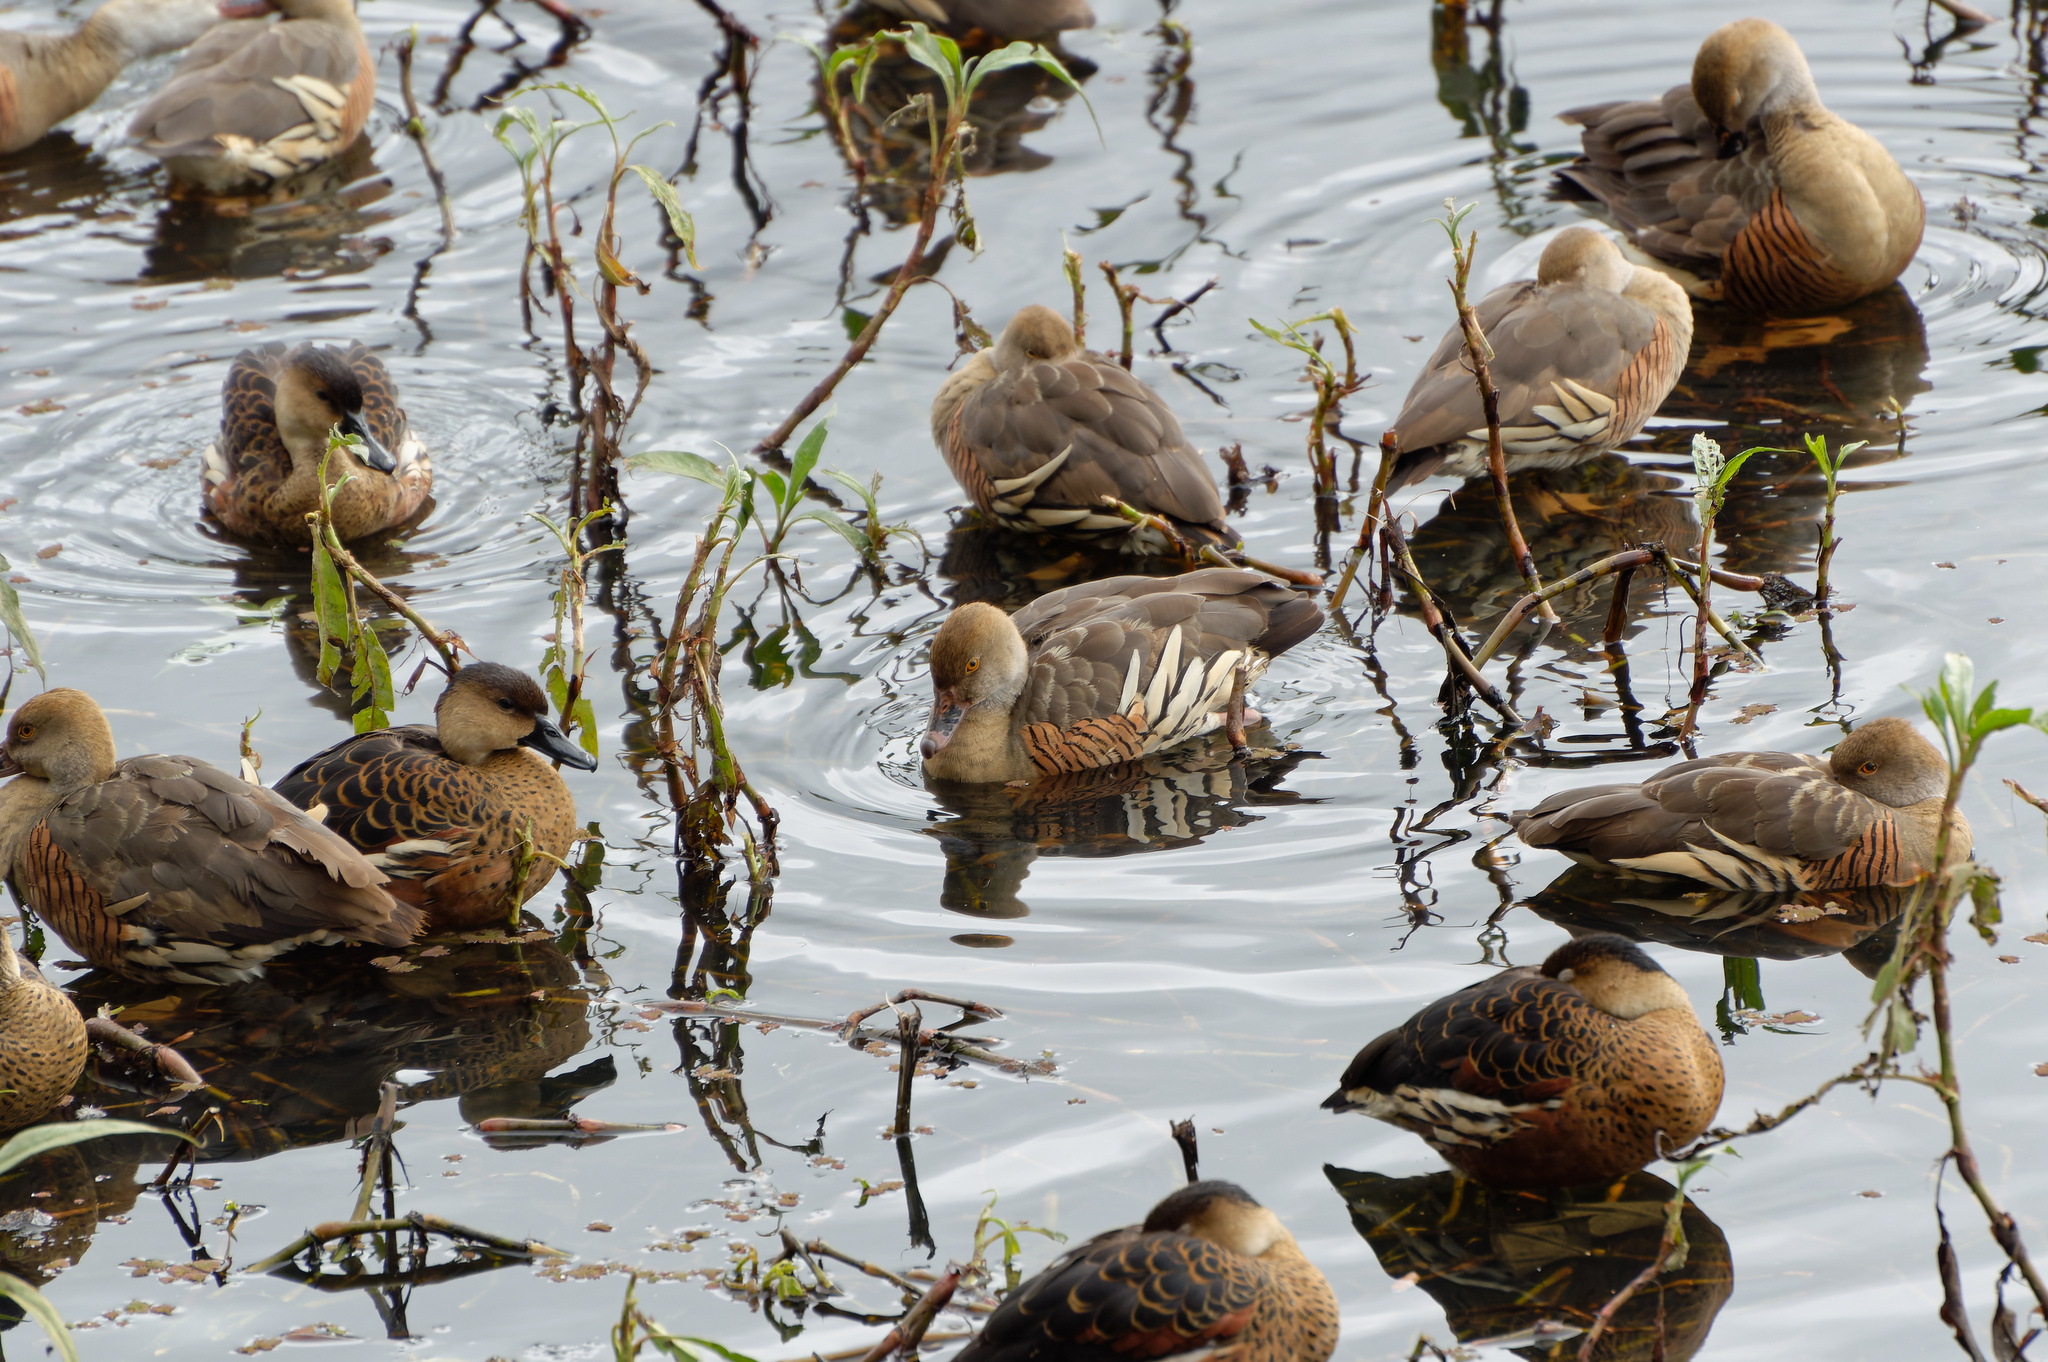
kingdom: Animalia
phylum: Chordata
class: Aves
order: Anseriformes
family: Anatidae
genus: Dendrocygna
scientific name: Dendrocygna eytoni
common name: Plumed whistling-duck
